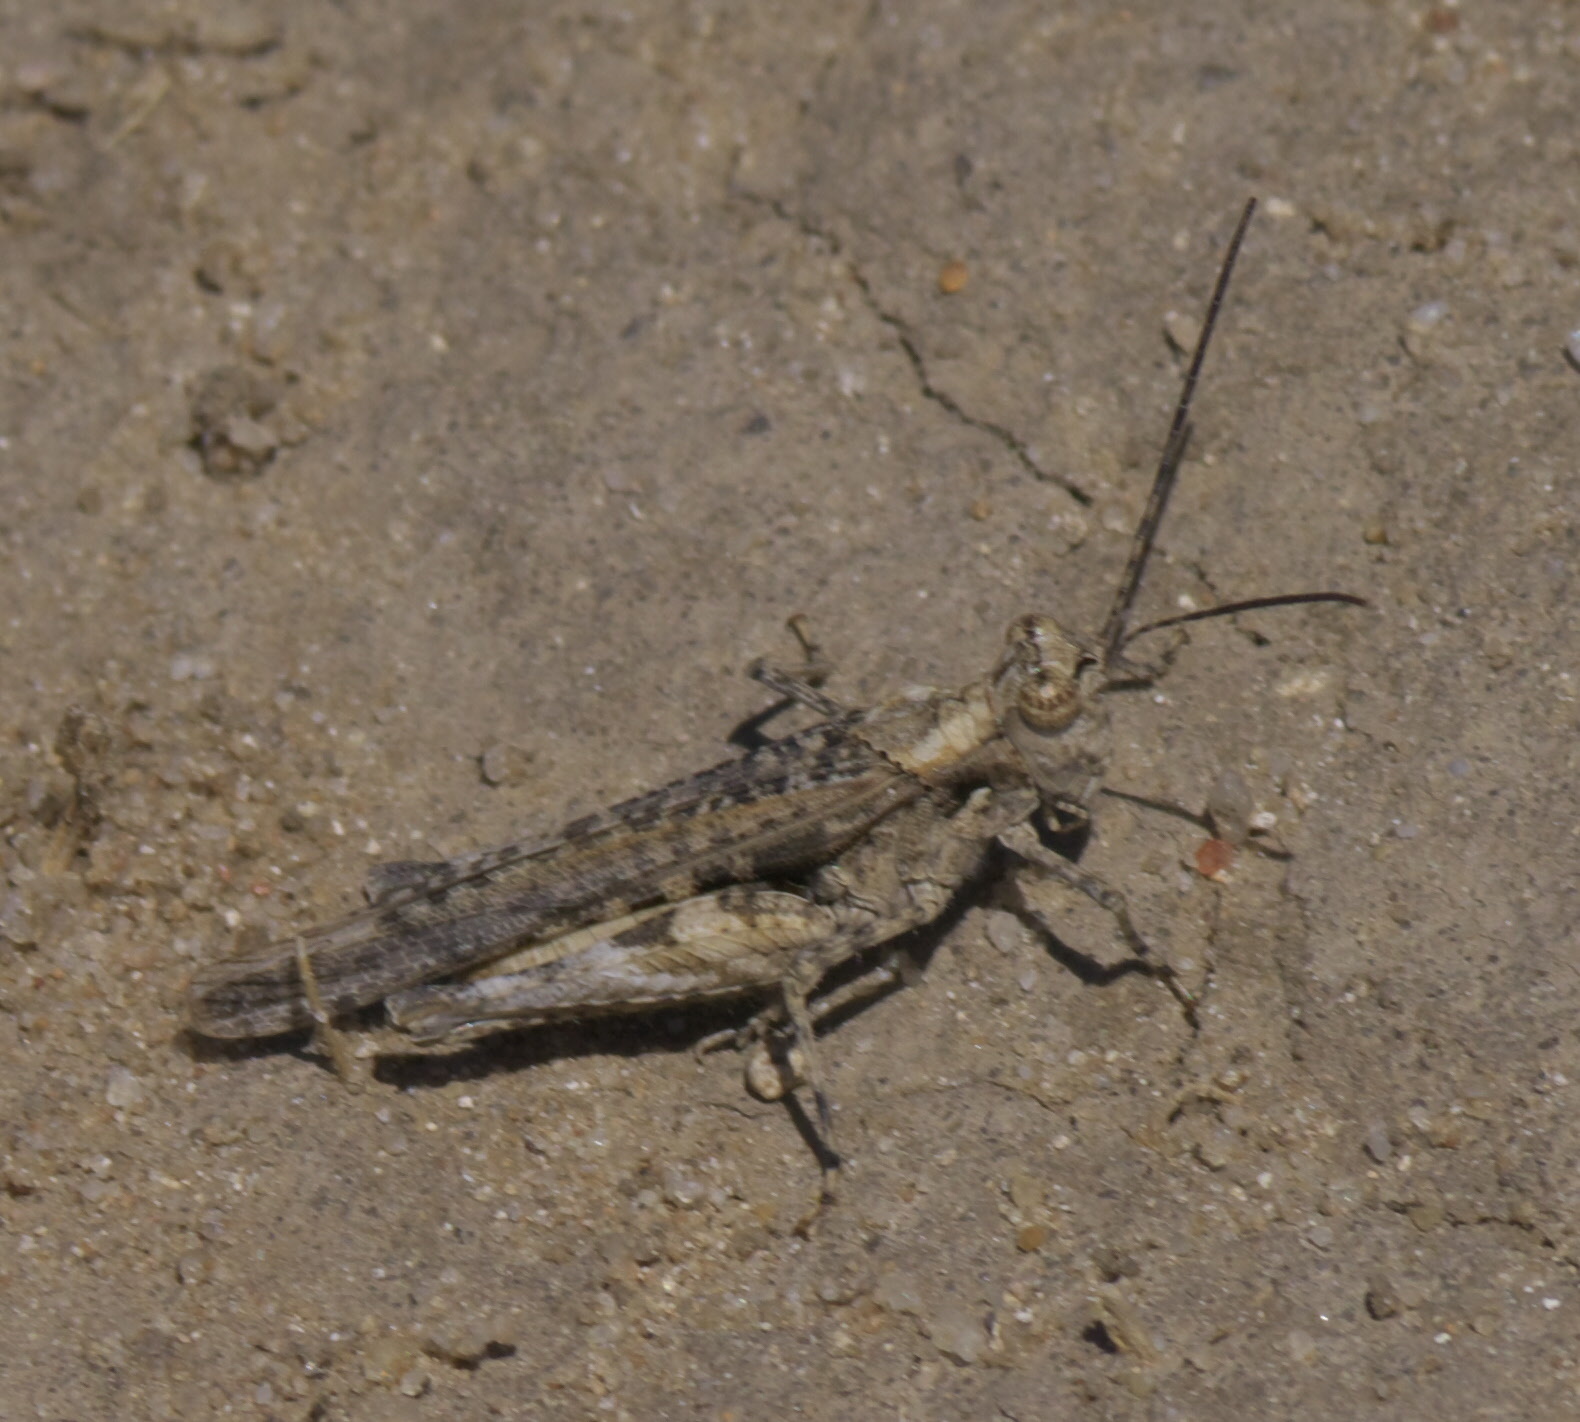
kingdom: Animalia
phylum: Arthropoda
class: Insecta
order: Orthoptera
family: Acrididae
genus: Derotmema
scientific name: Derotmema haydenii
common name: Hayden's grasshopper
